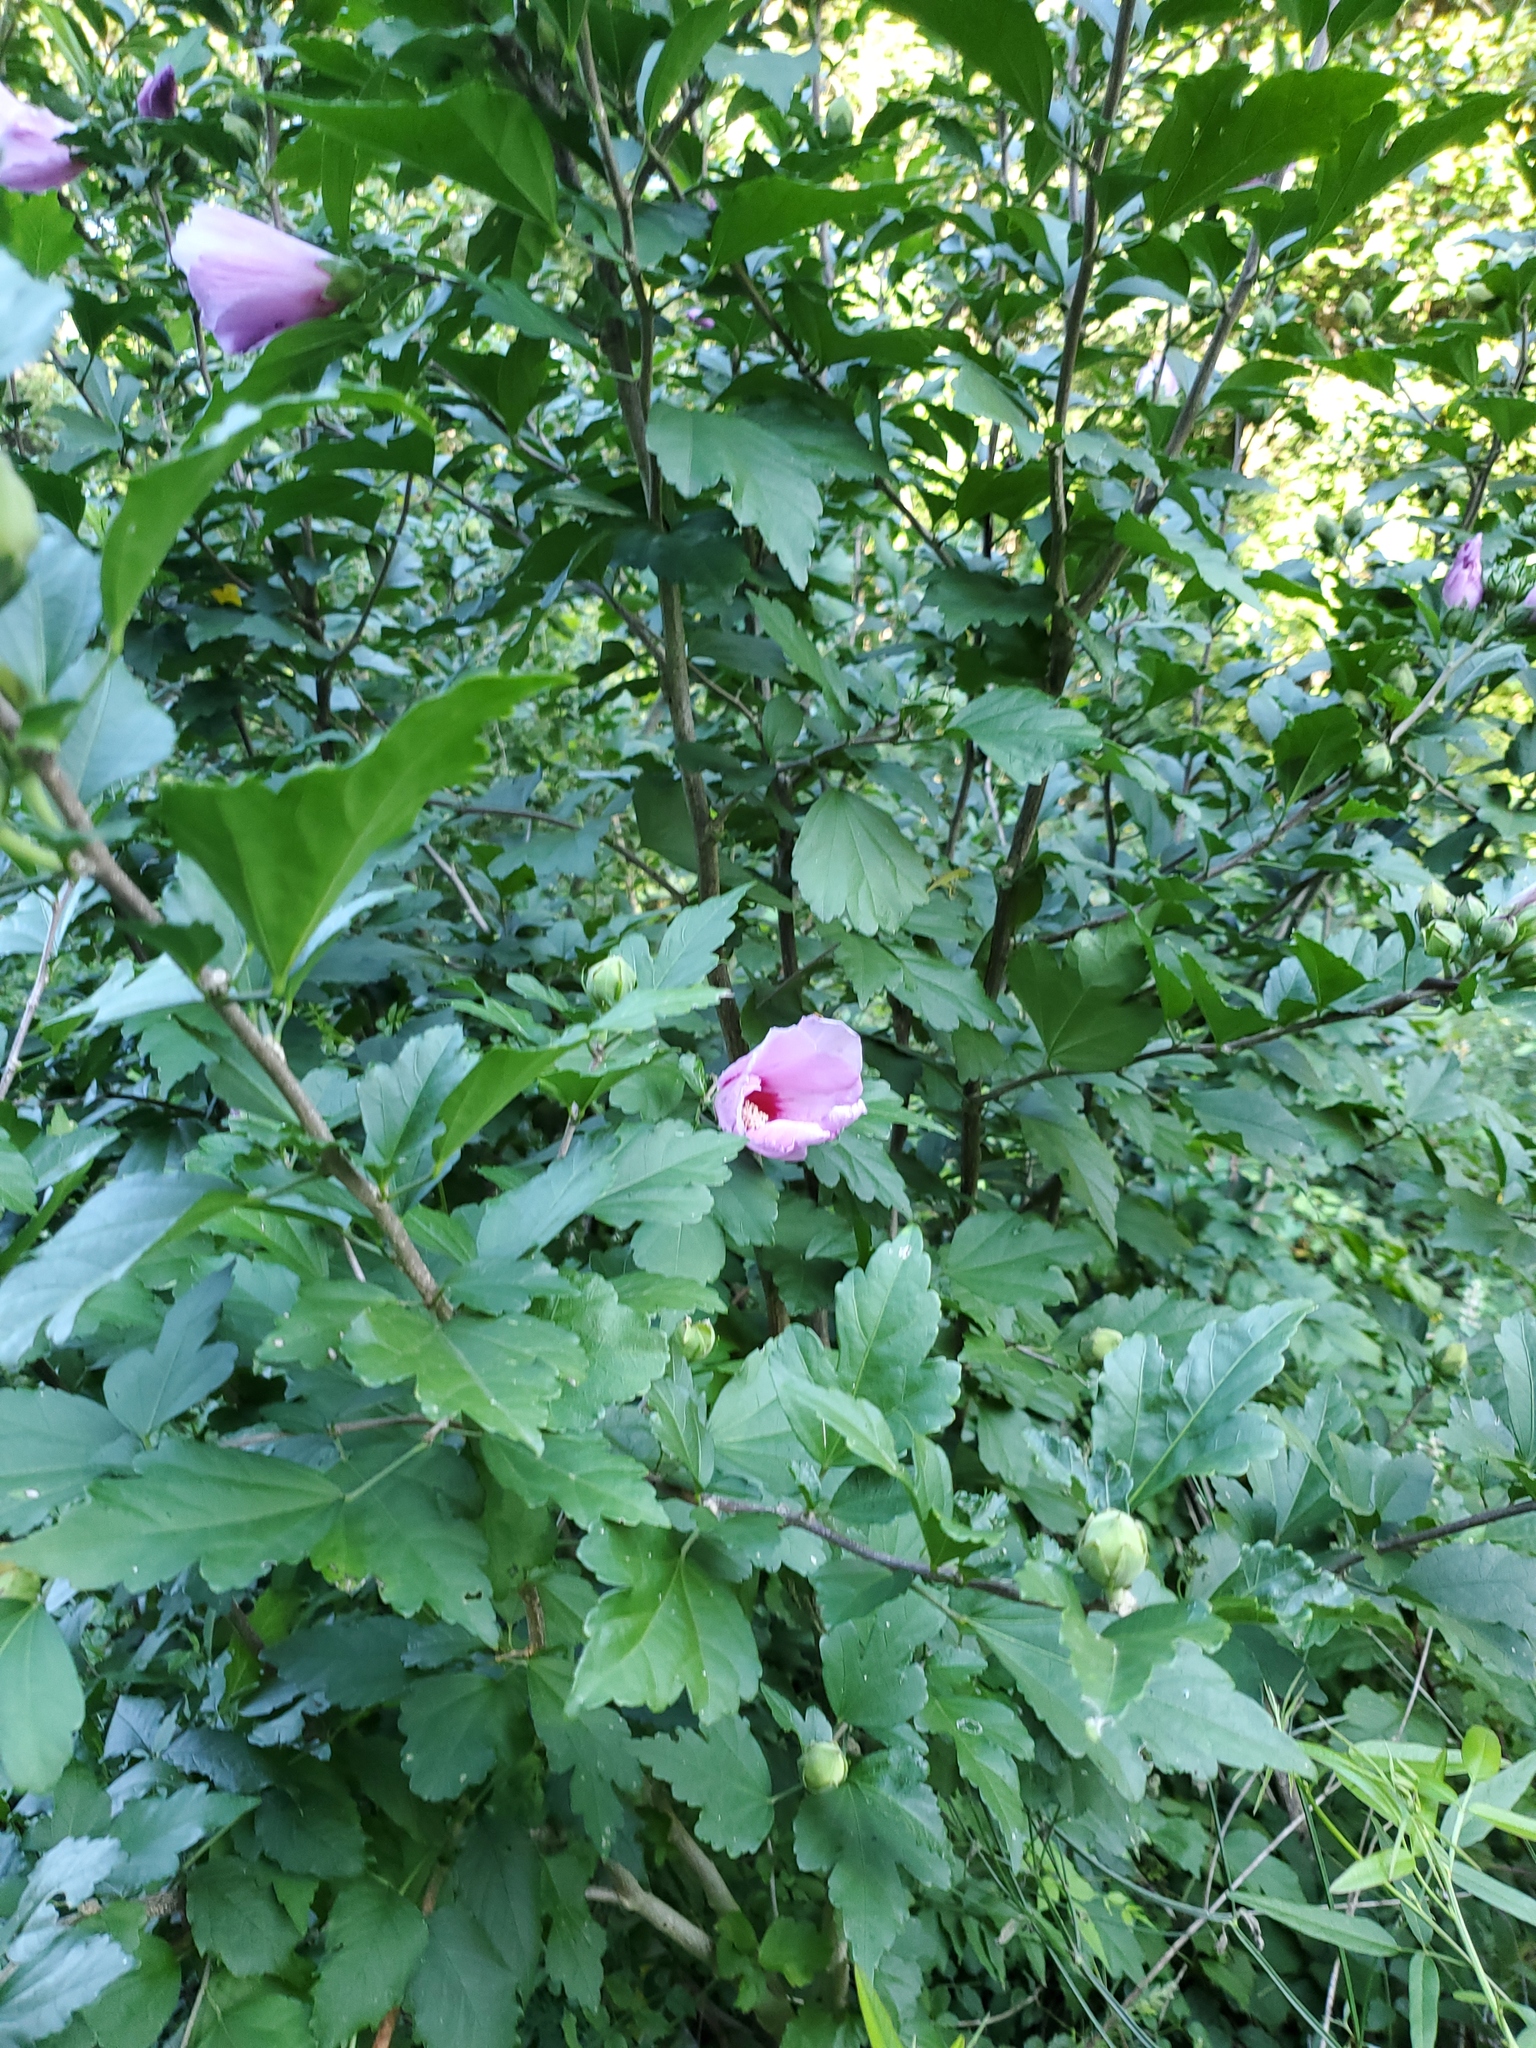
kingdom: Plantae
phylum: Tracheophyta
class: Magnoliopsida
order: Malvales
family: Malvaceae
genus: Hibiscus
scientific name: Hibiscus syriacus
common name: Syrian ketmia
